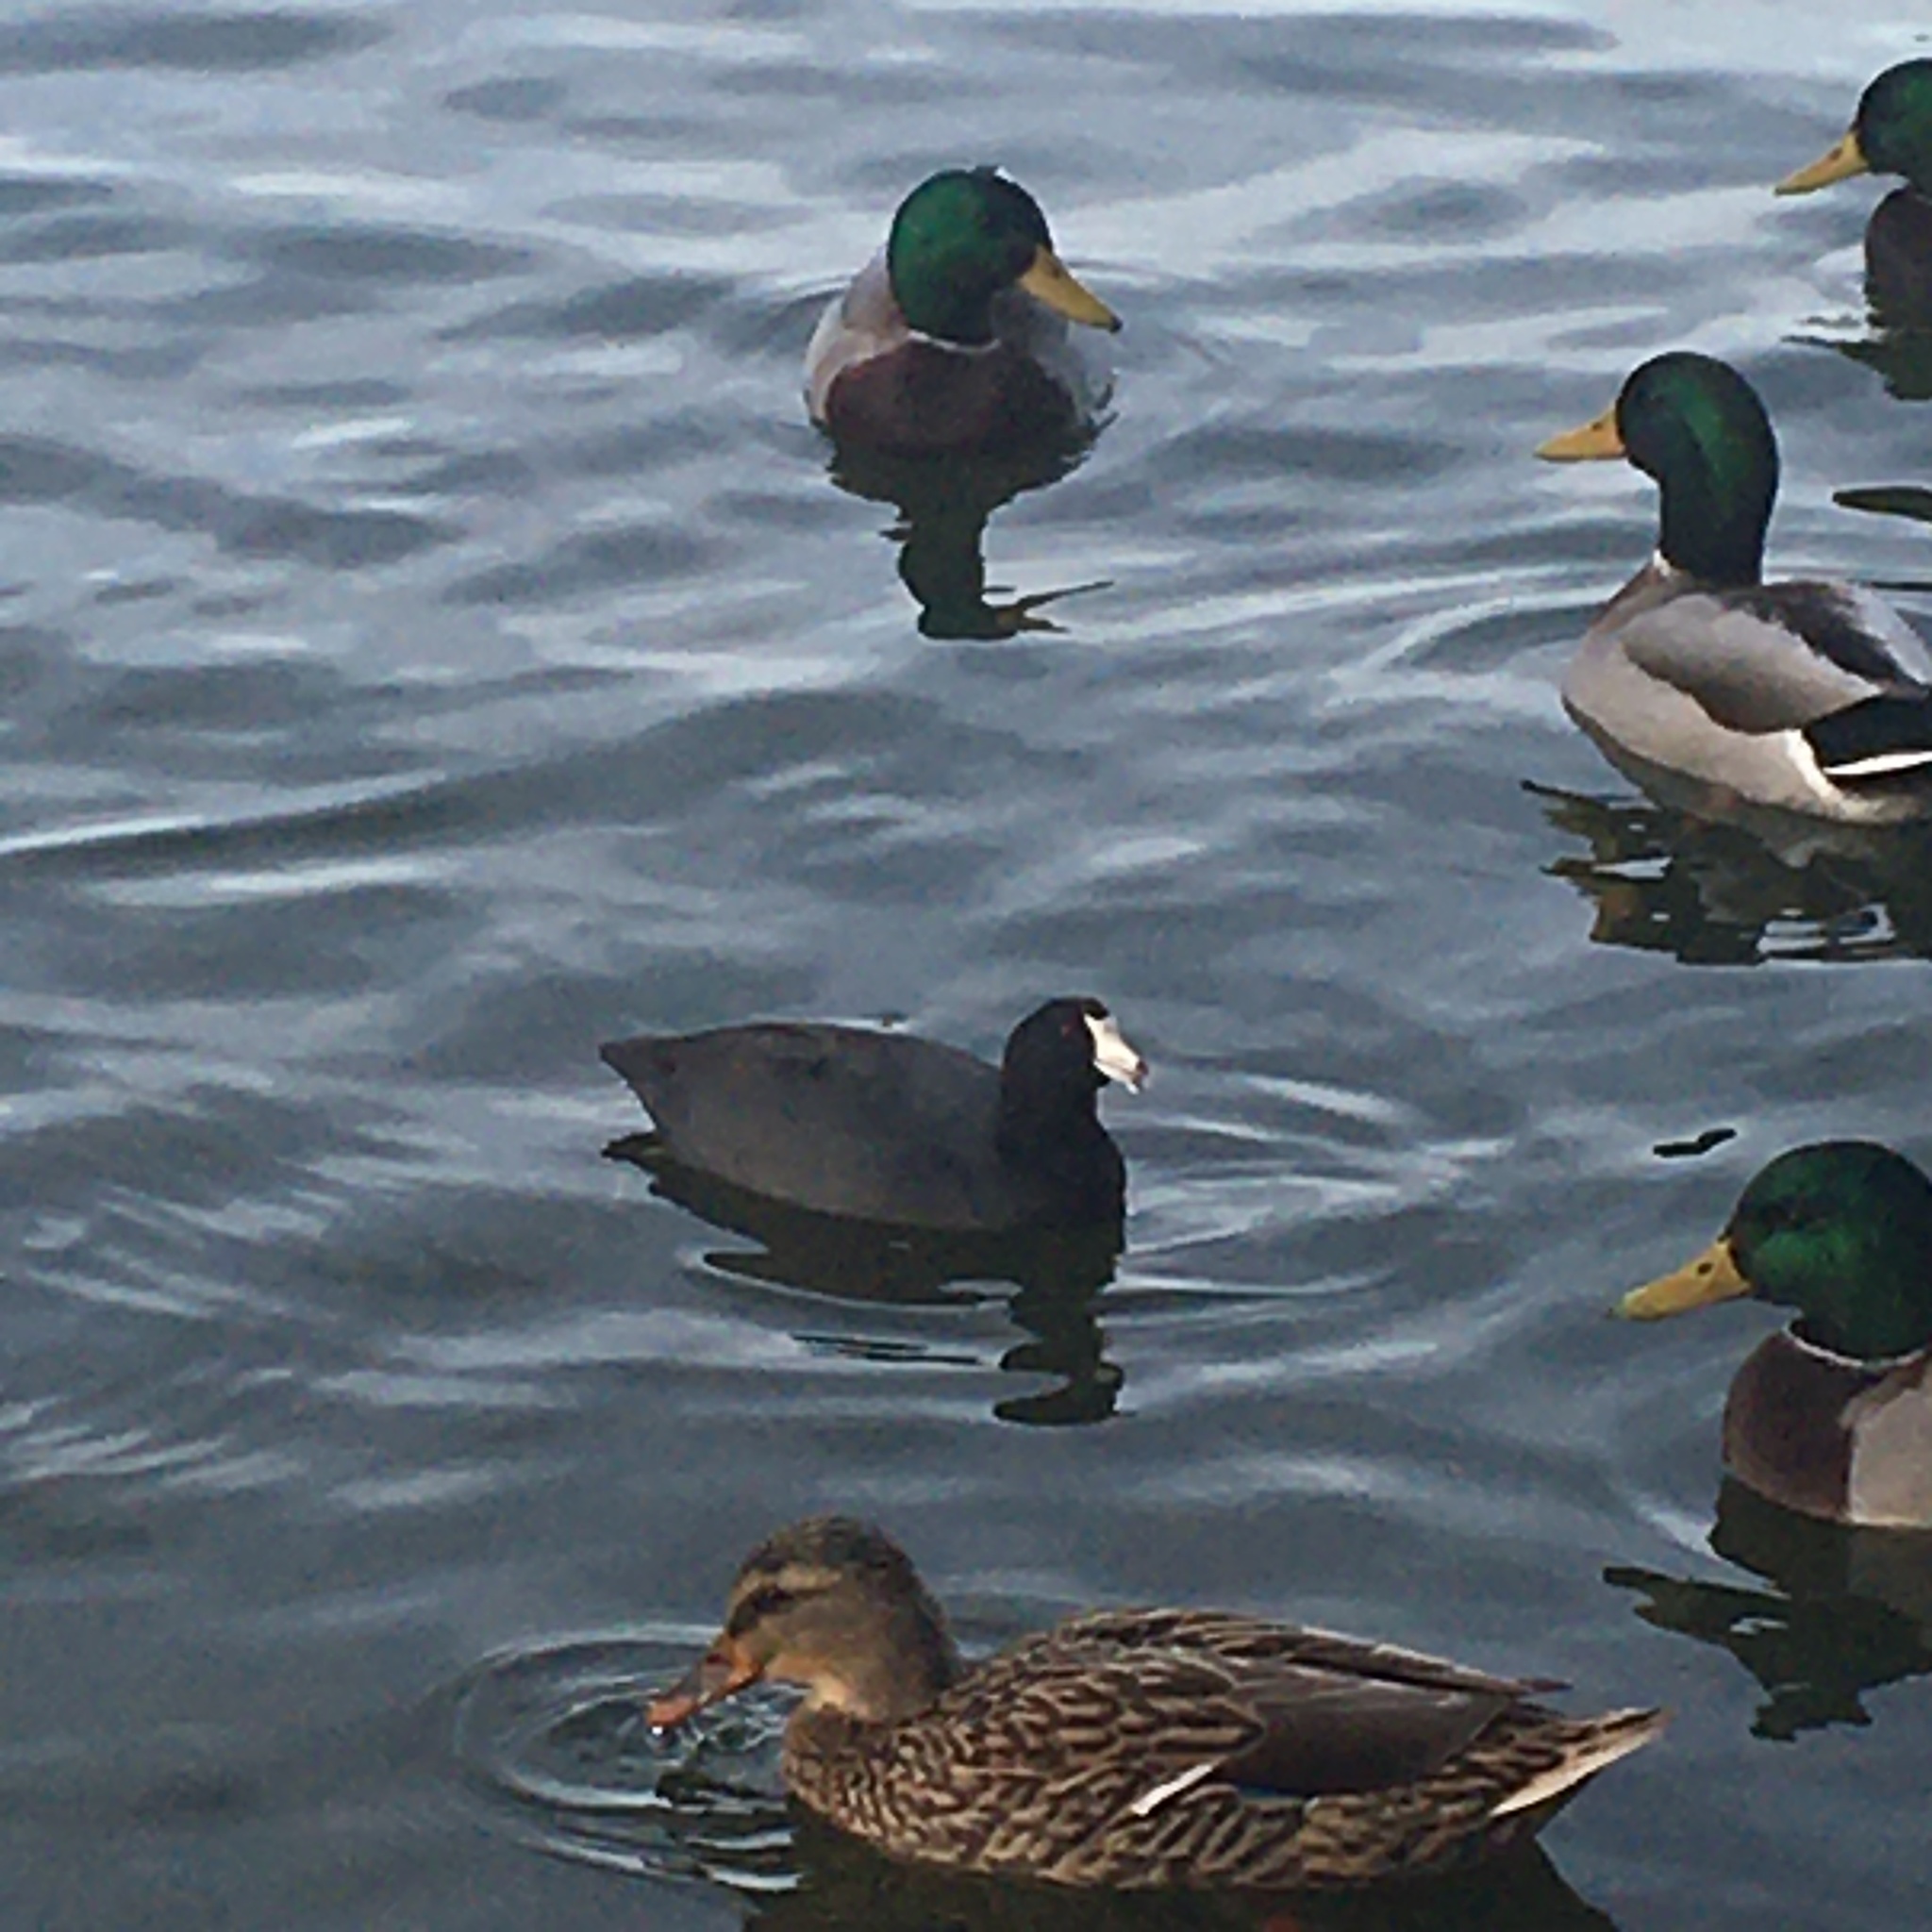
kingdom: Animalia
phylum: Chordata
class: Aves
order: Gruiformes
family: Rallidae
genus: Fulica
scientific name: Fulica americana
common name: American coot
